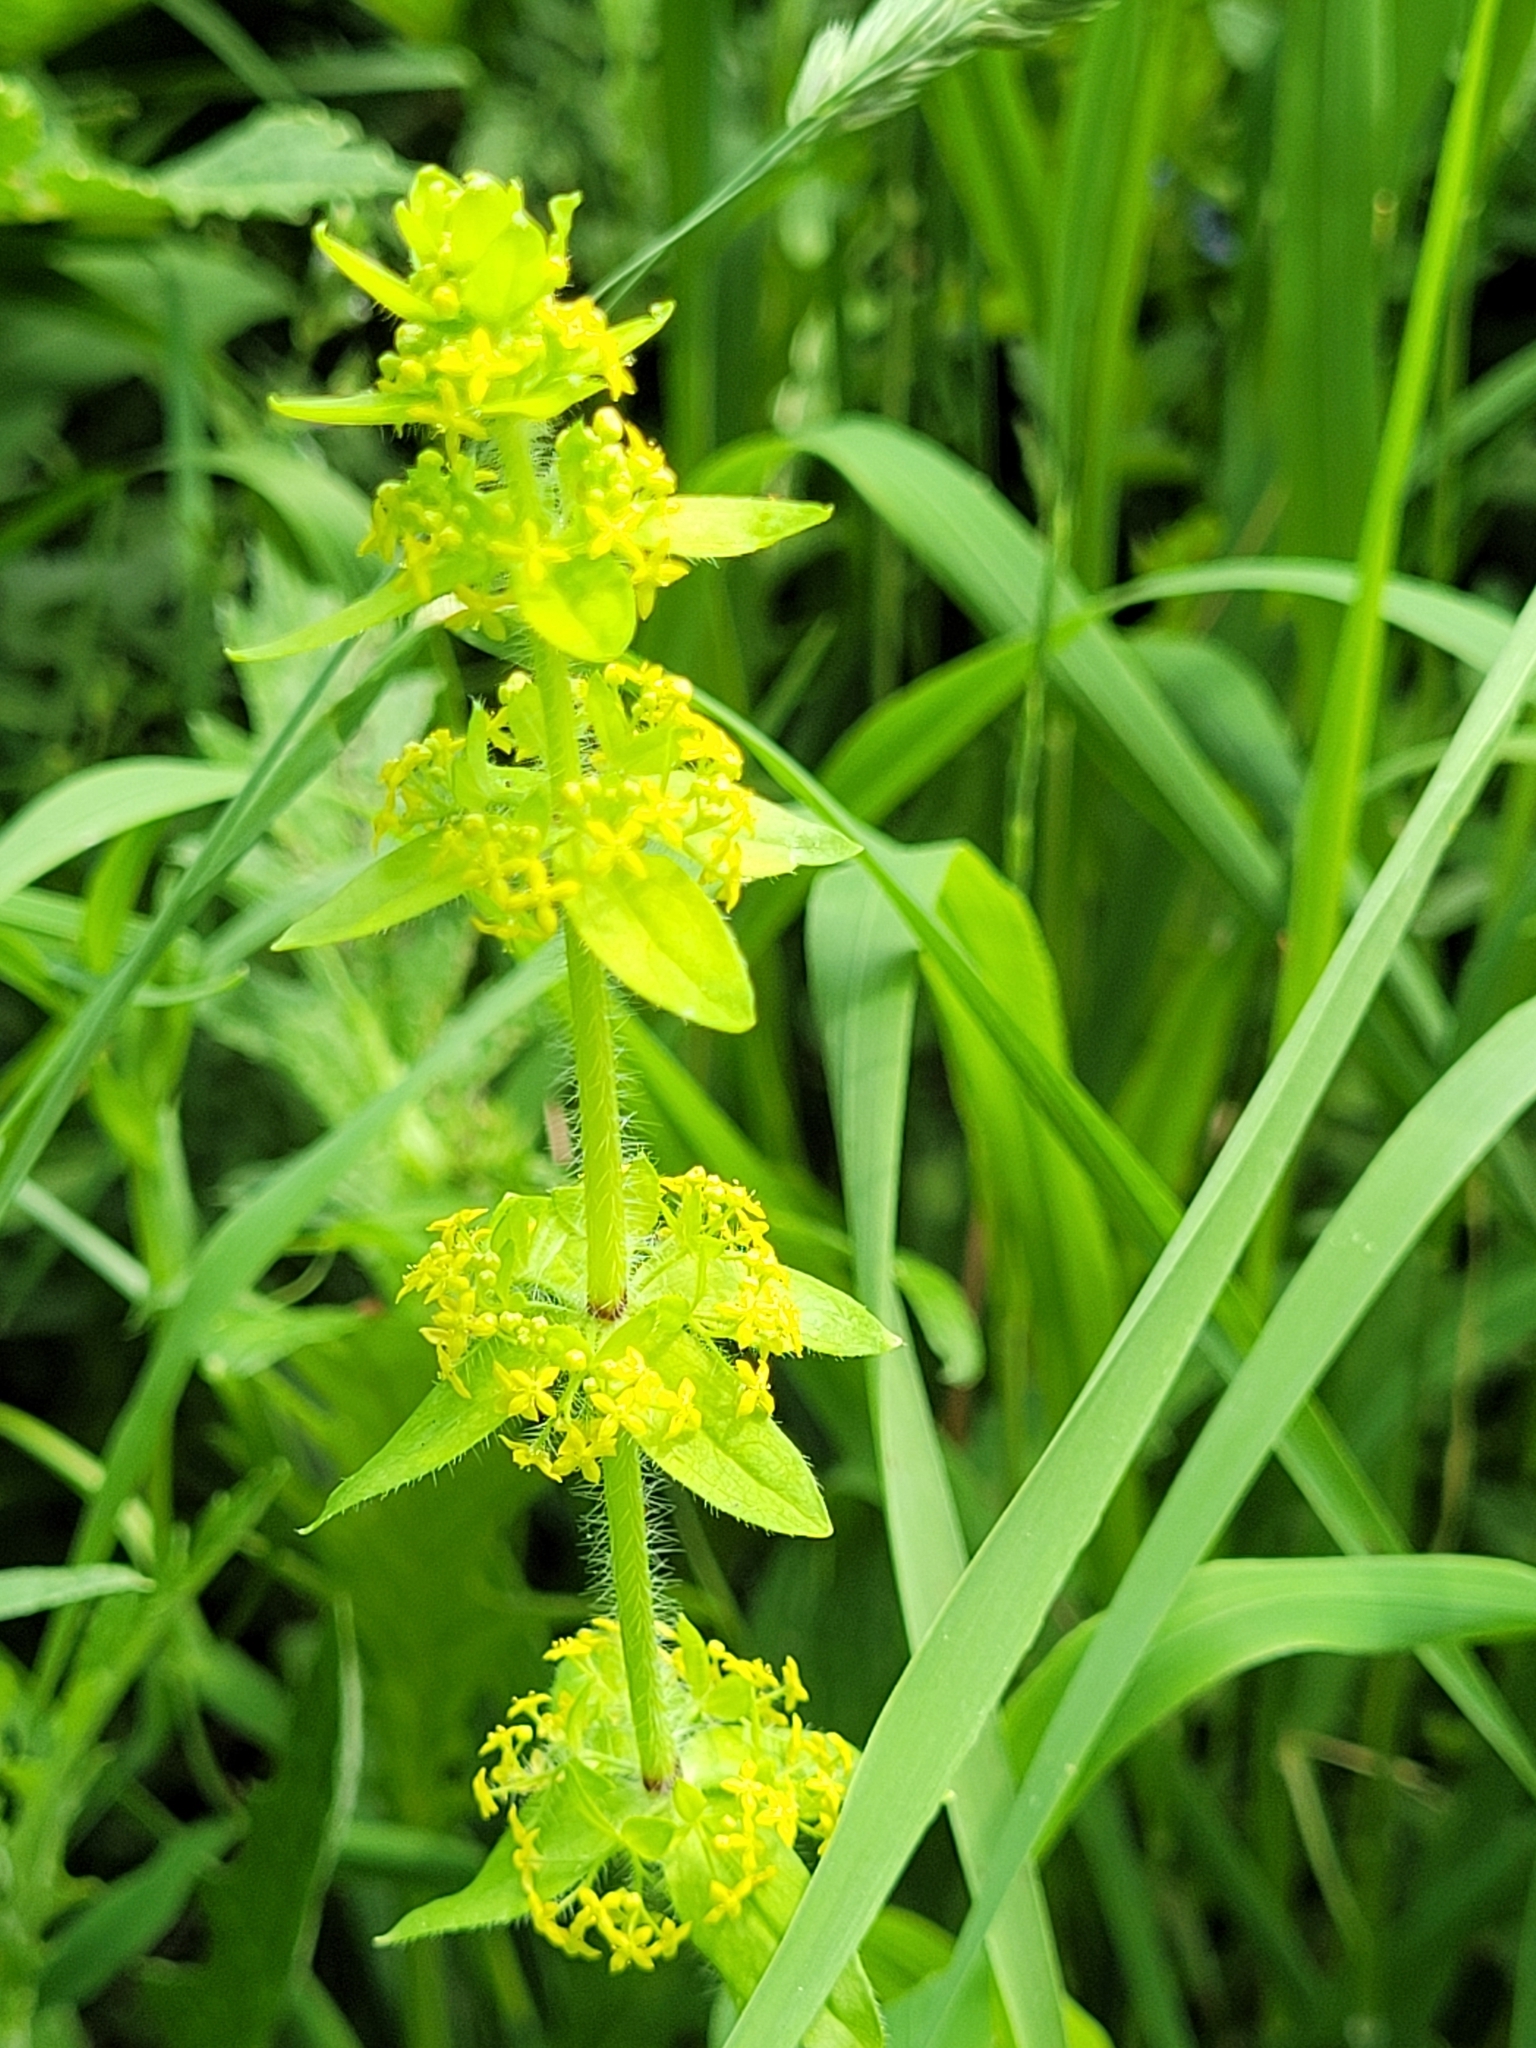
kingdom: Plantae
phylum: Tracheophyta
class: Magnoliopsida
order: Gentianales
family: Rubiaceae
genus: Cruciata
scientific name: Cruciata laevipes
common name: Crosswort
